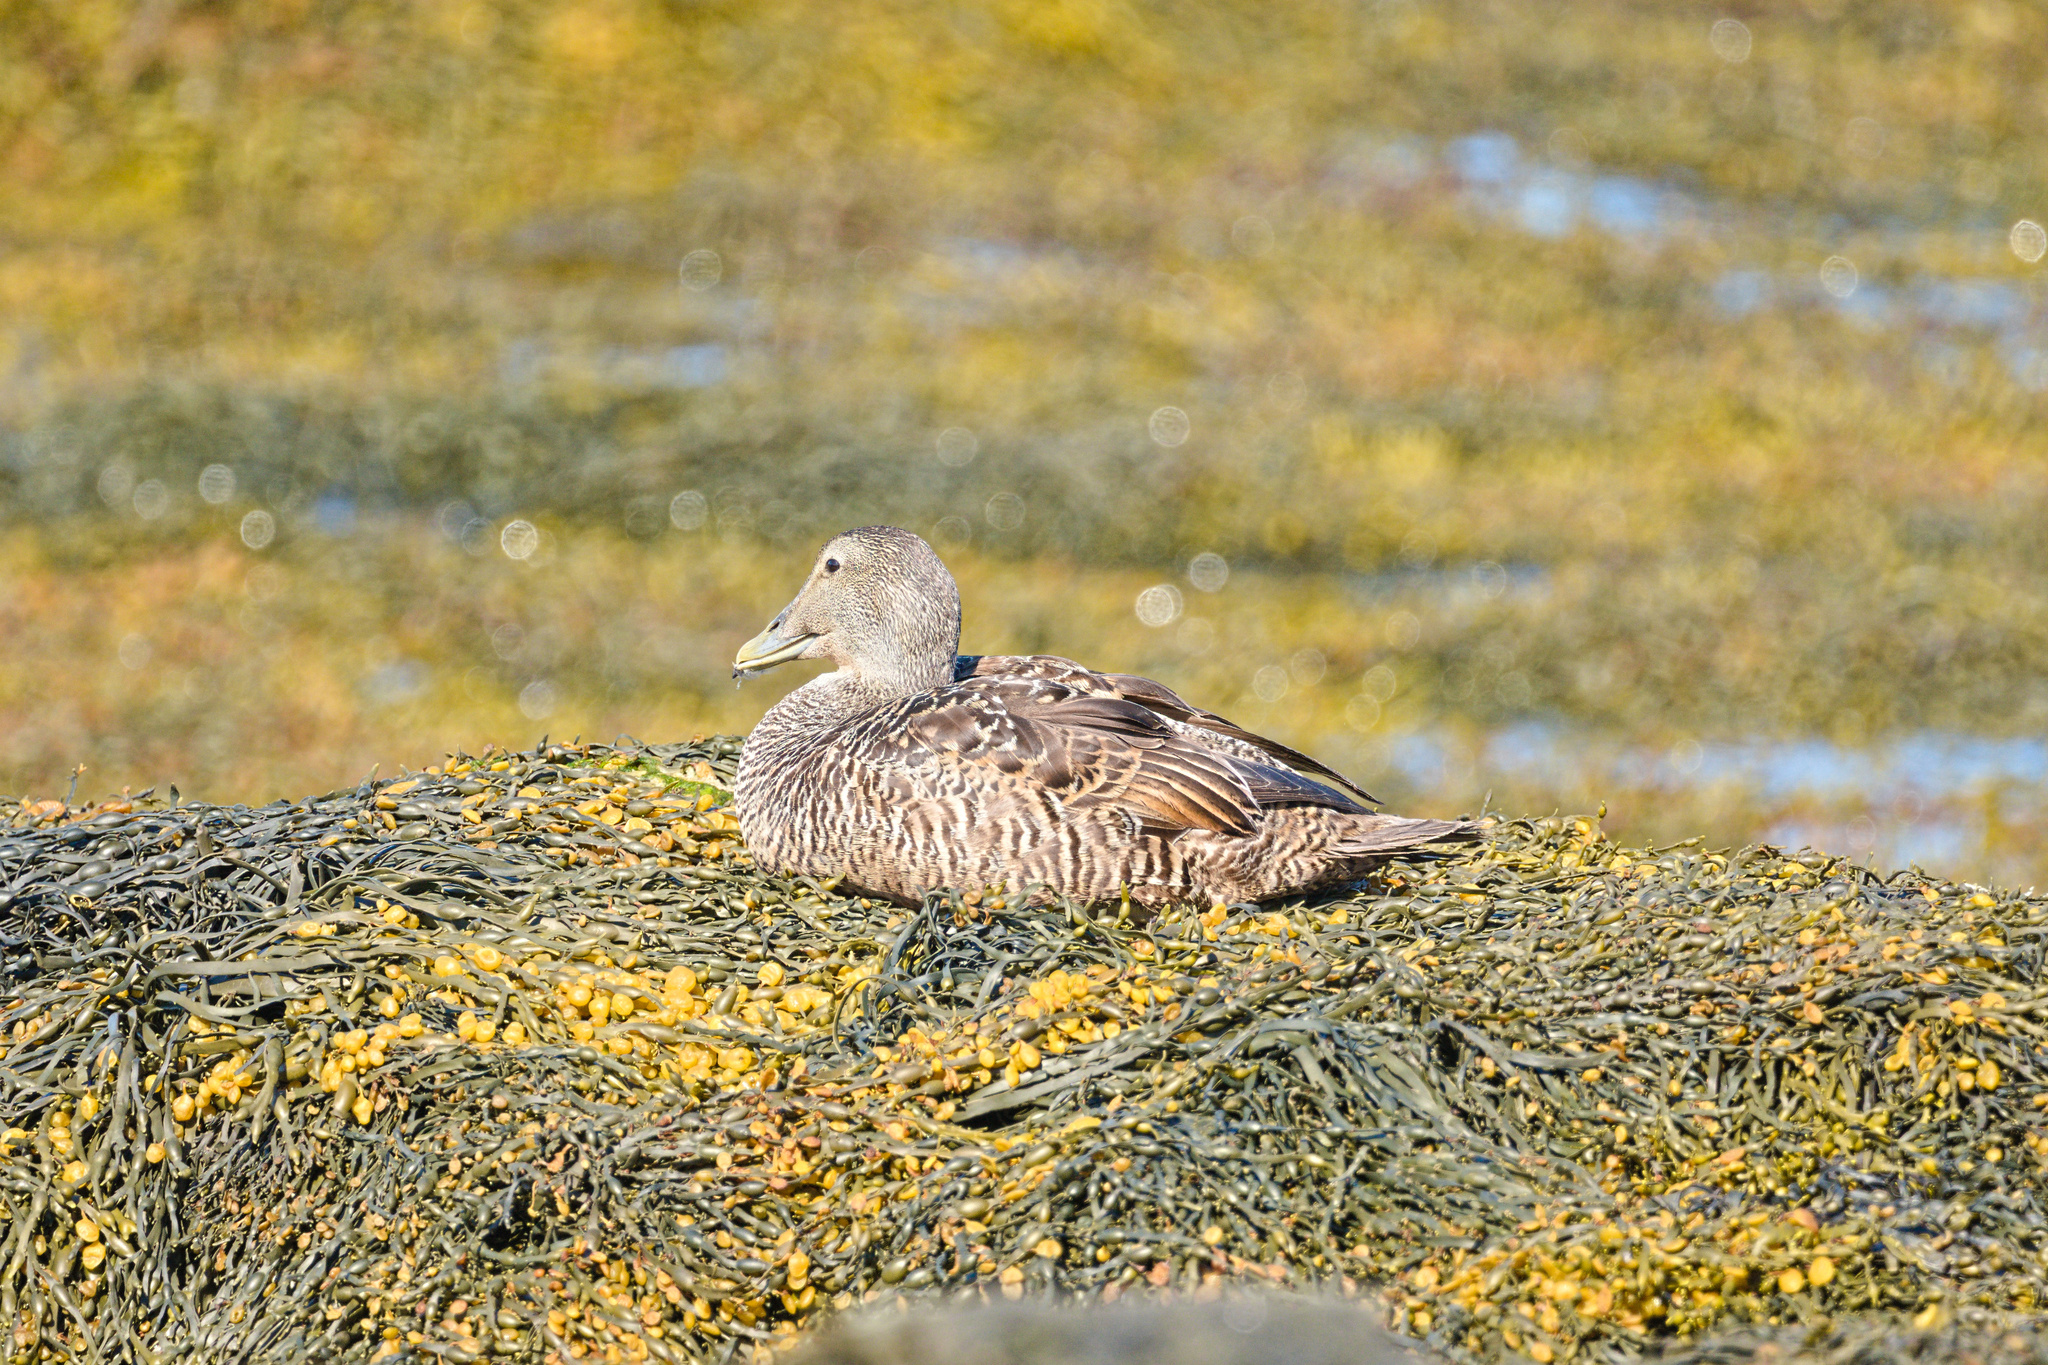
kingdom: Animalia
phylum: Chordata
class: Aves
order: Anseriformes
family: Anatidae
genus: Somateria
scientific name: Somateria mollissima
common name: Common eider
